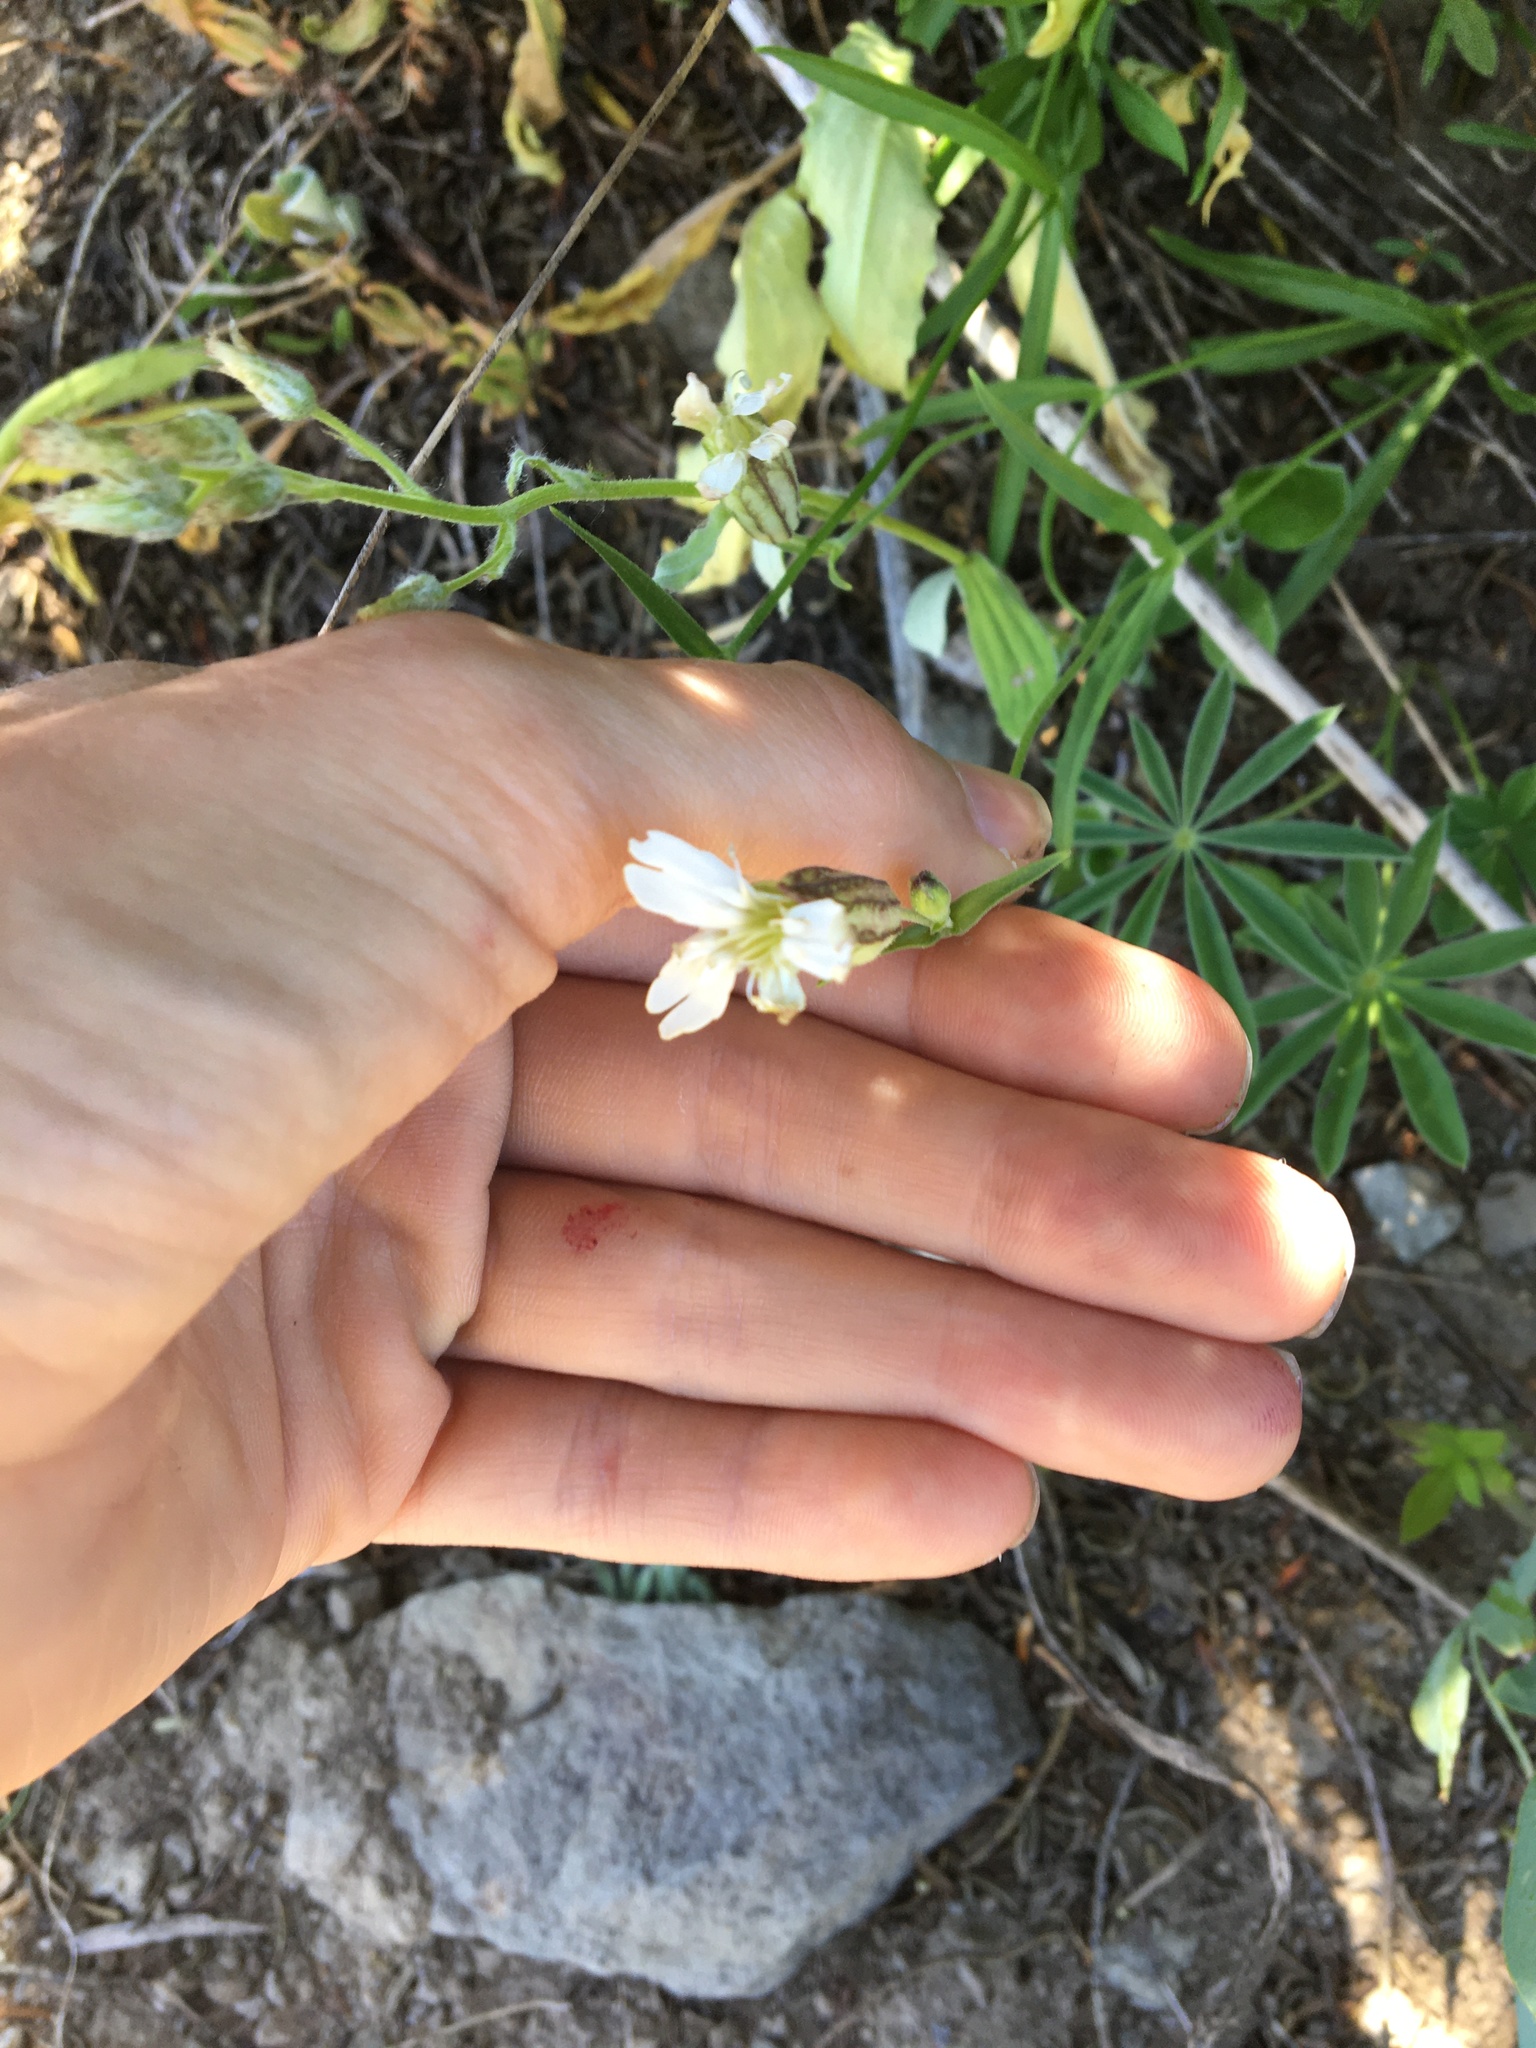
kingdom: Plantae
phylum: Tracheophyta
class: Magnoliopsida
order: Caryophyllales
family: Caryophyllaceae
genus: Silene
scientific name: Silene douglasii
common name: Douglas's catchfly
